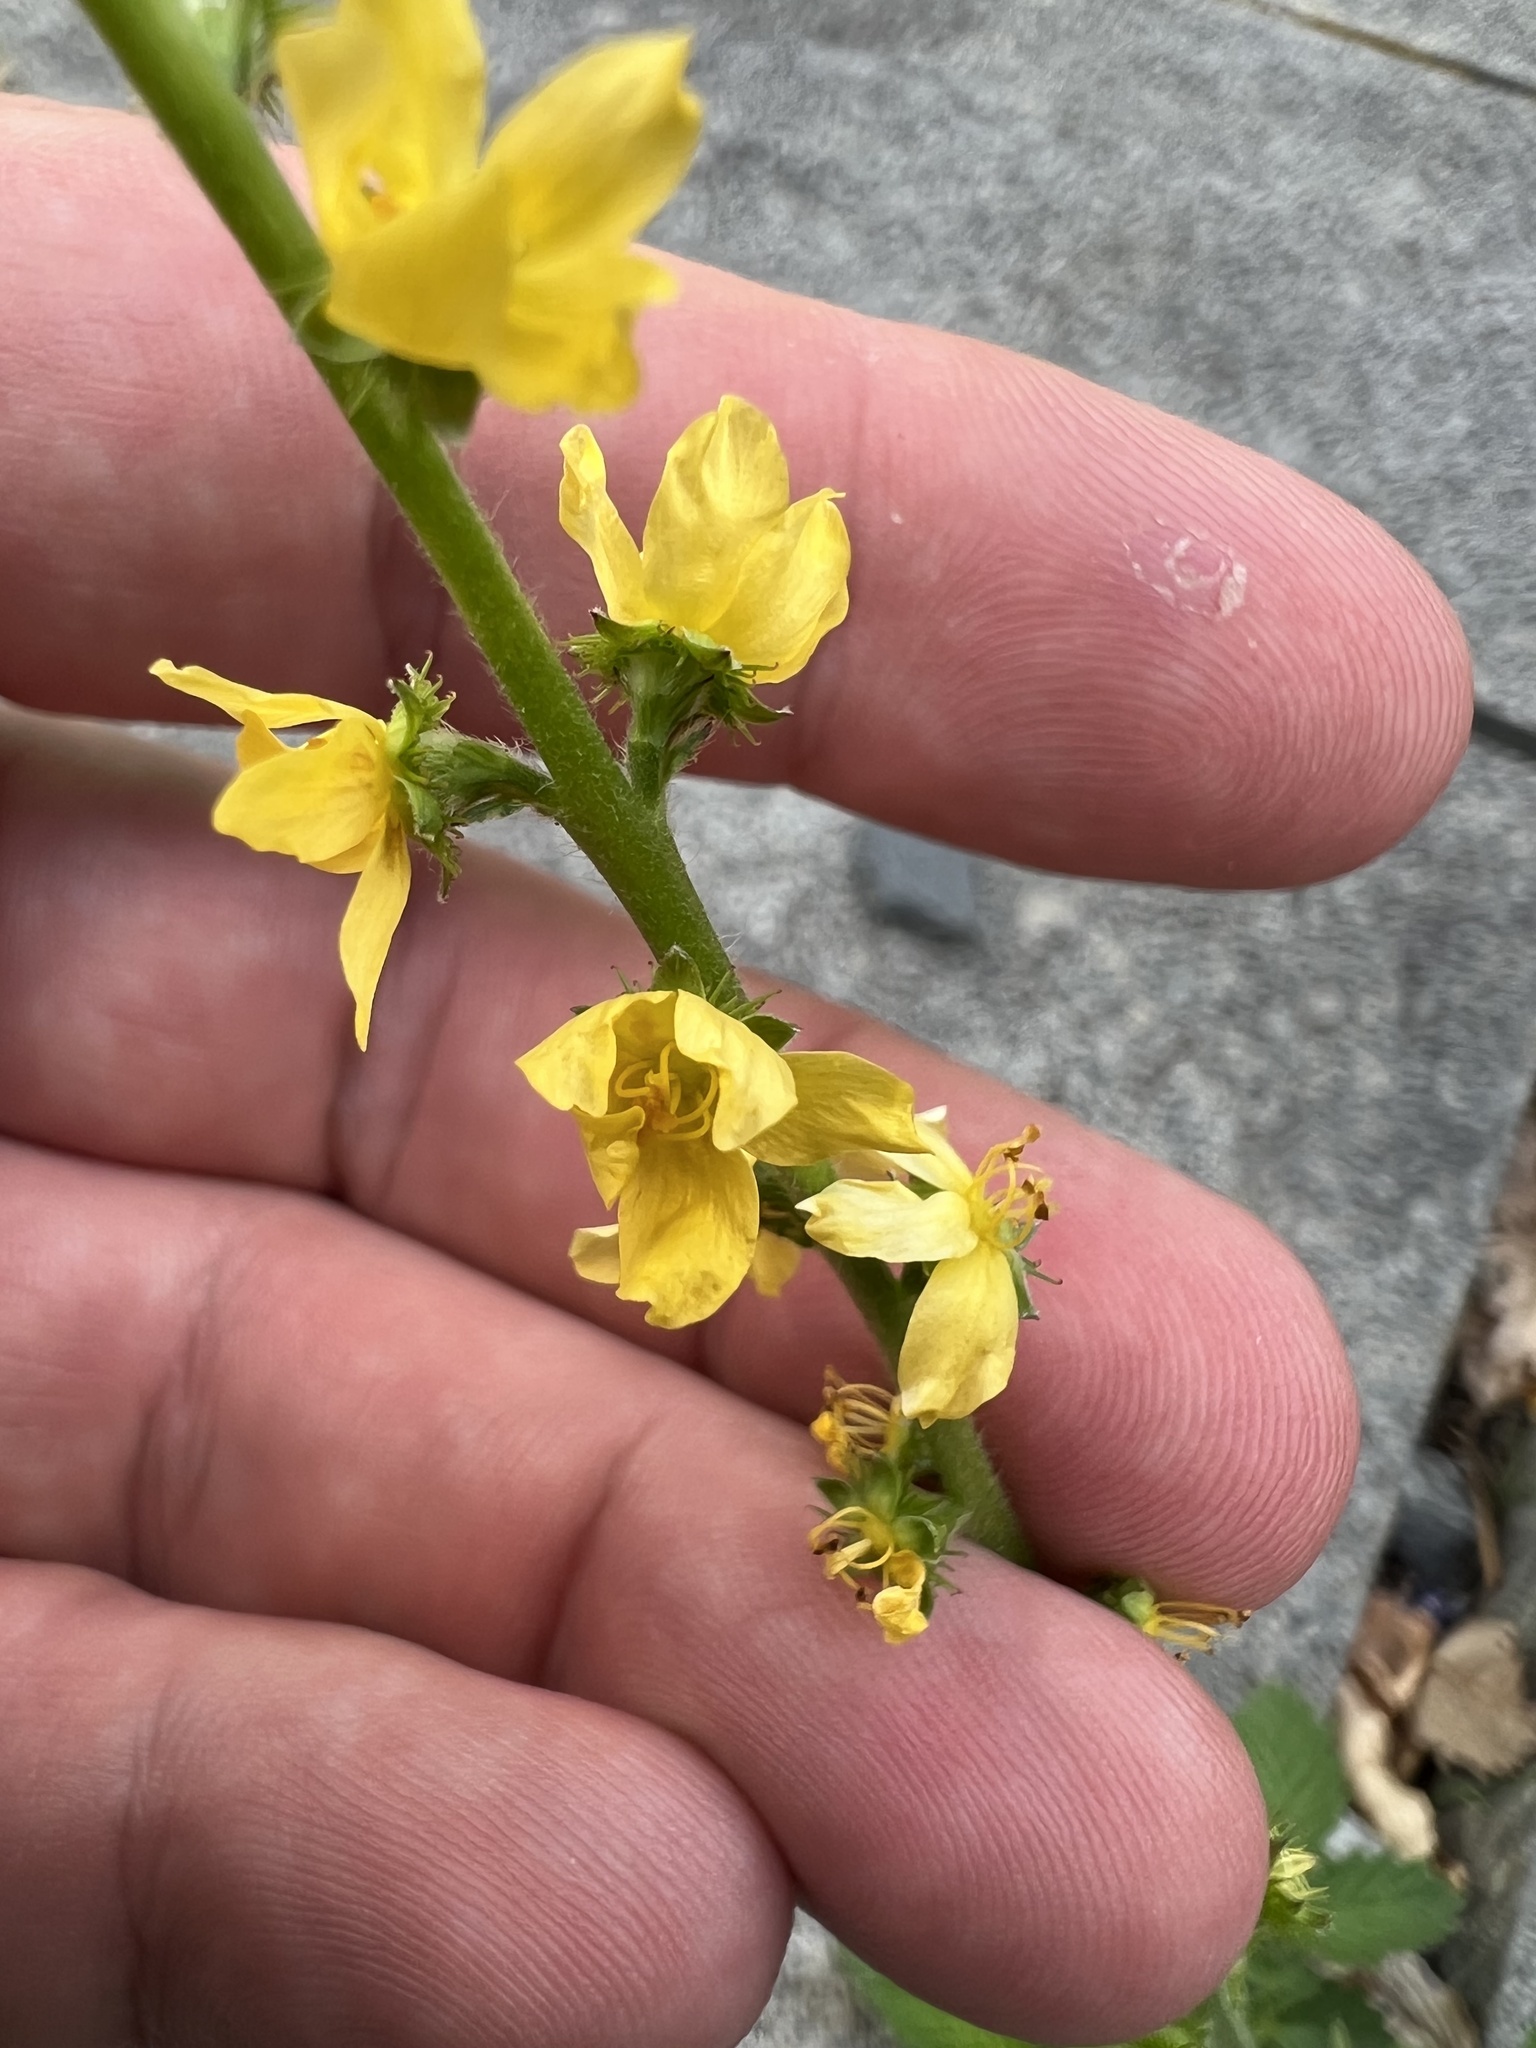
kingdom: Plantae
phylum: Tracheophyta
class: Magnoliopsida
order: Rosales
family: Rosaceae
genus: Agrimonia
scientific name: Agrimonia eupatoria
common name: Agrimony
